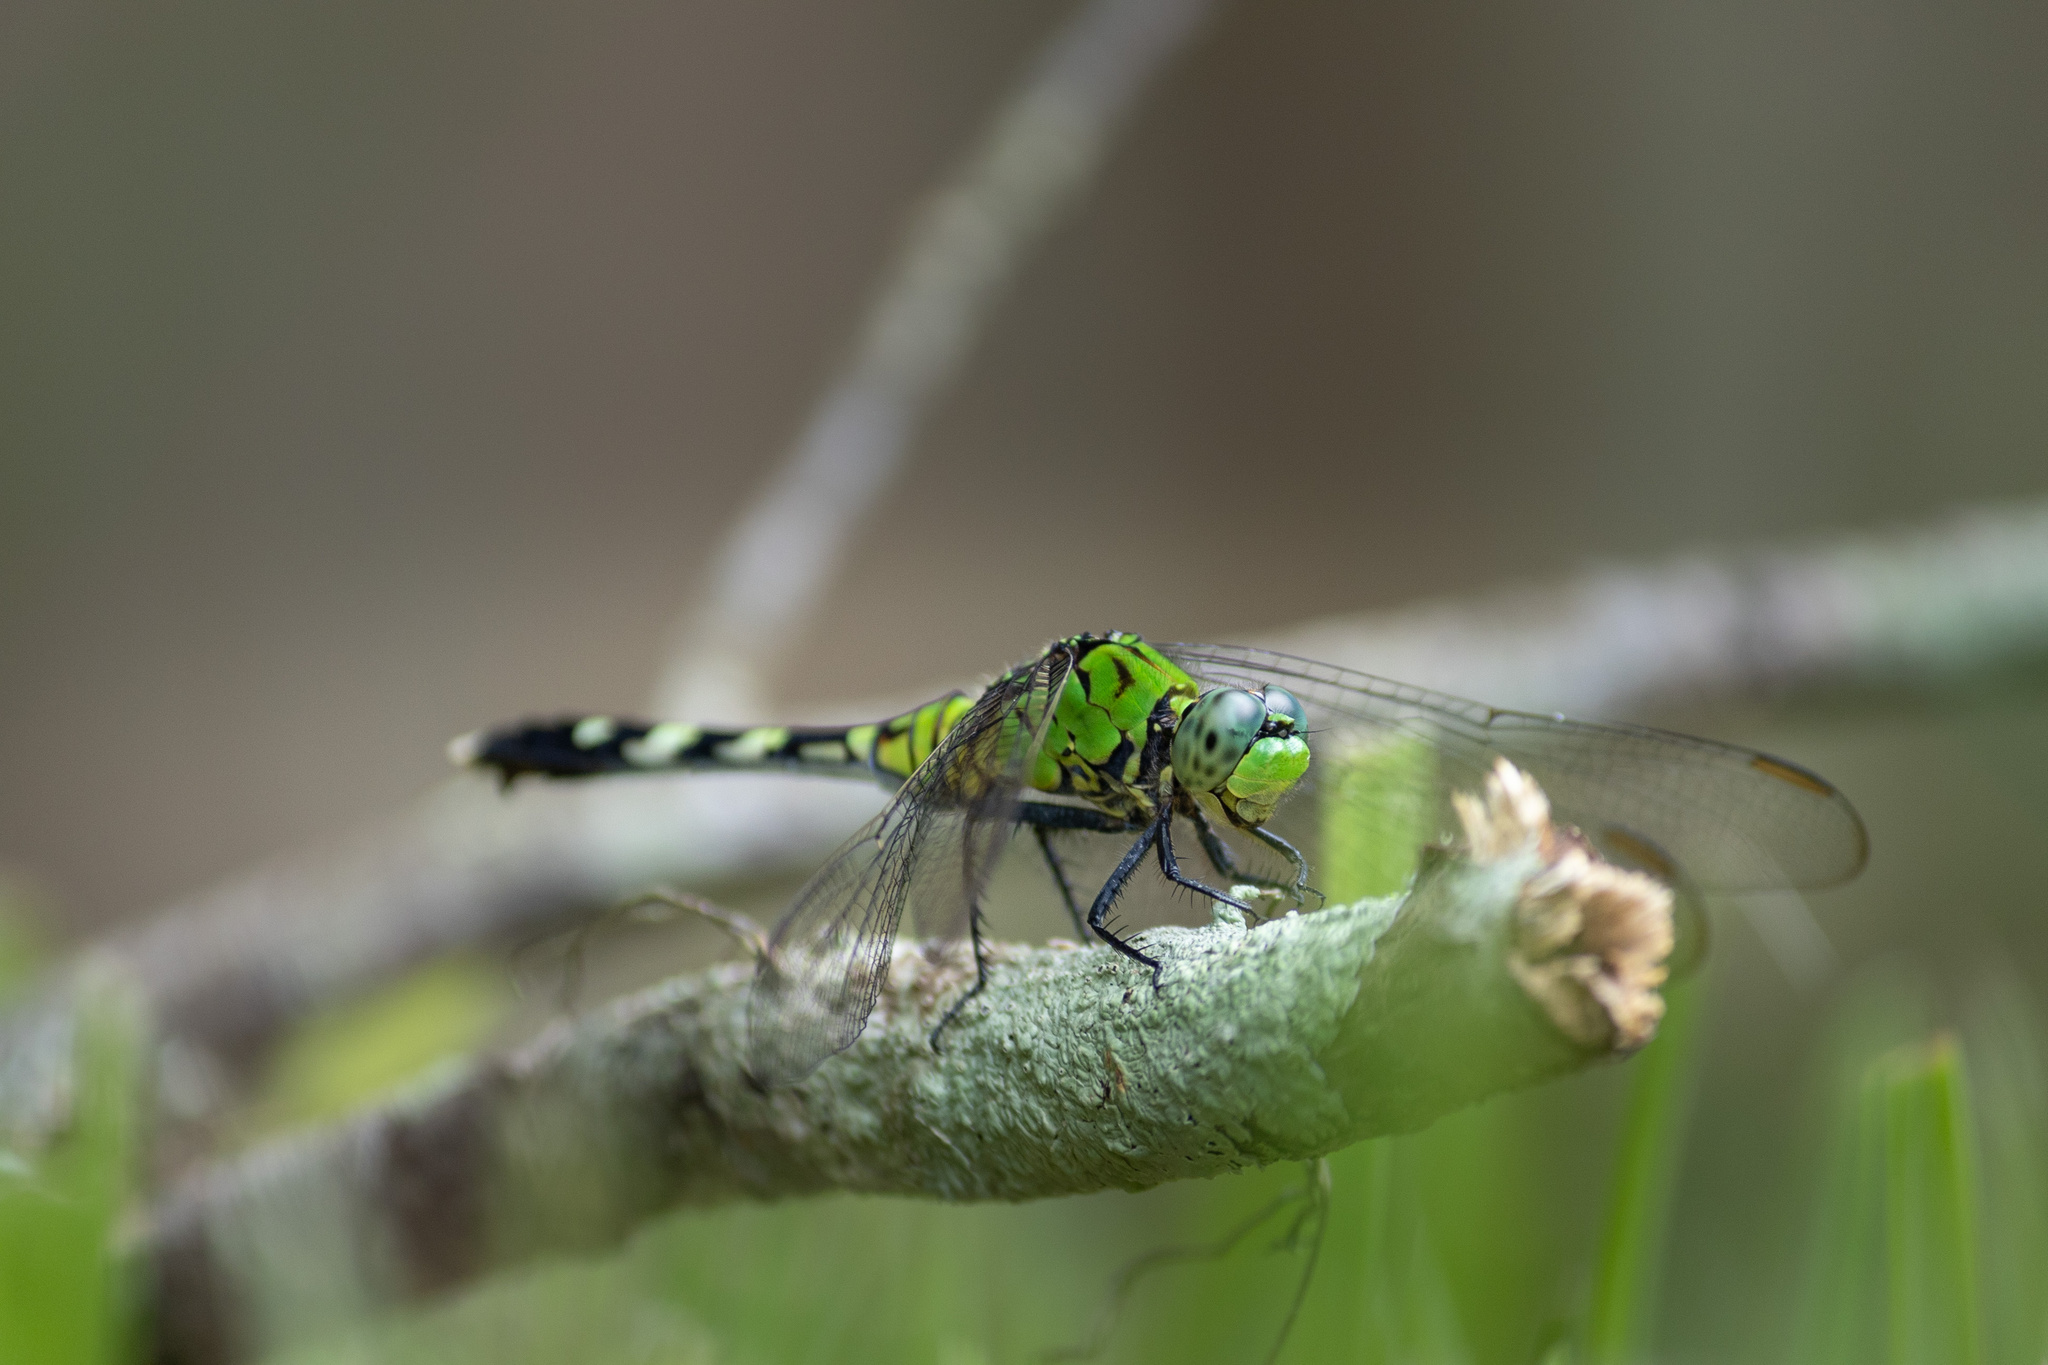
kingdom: Animalia
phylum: Arthropoda
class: Insecta
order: Odonata
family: Libellulidae
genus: Erythemis
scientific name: Erythemis simplicicollis
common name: Eastern pondhawk
